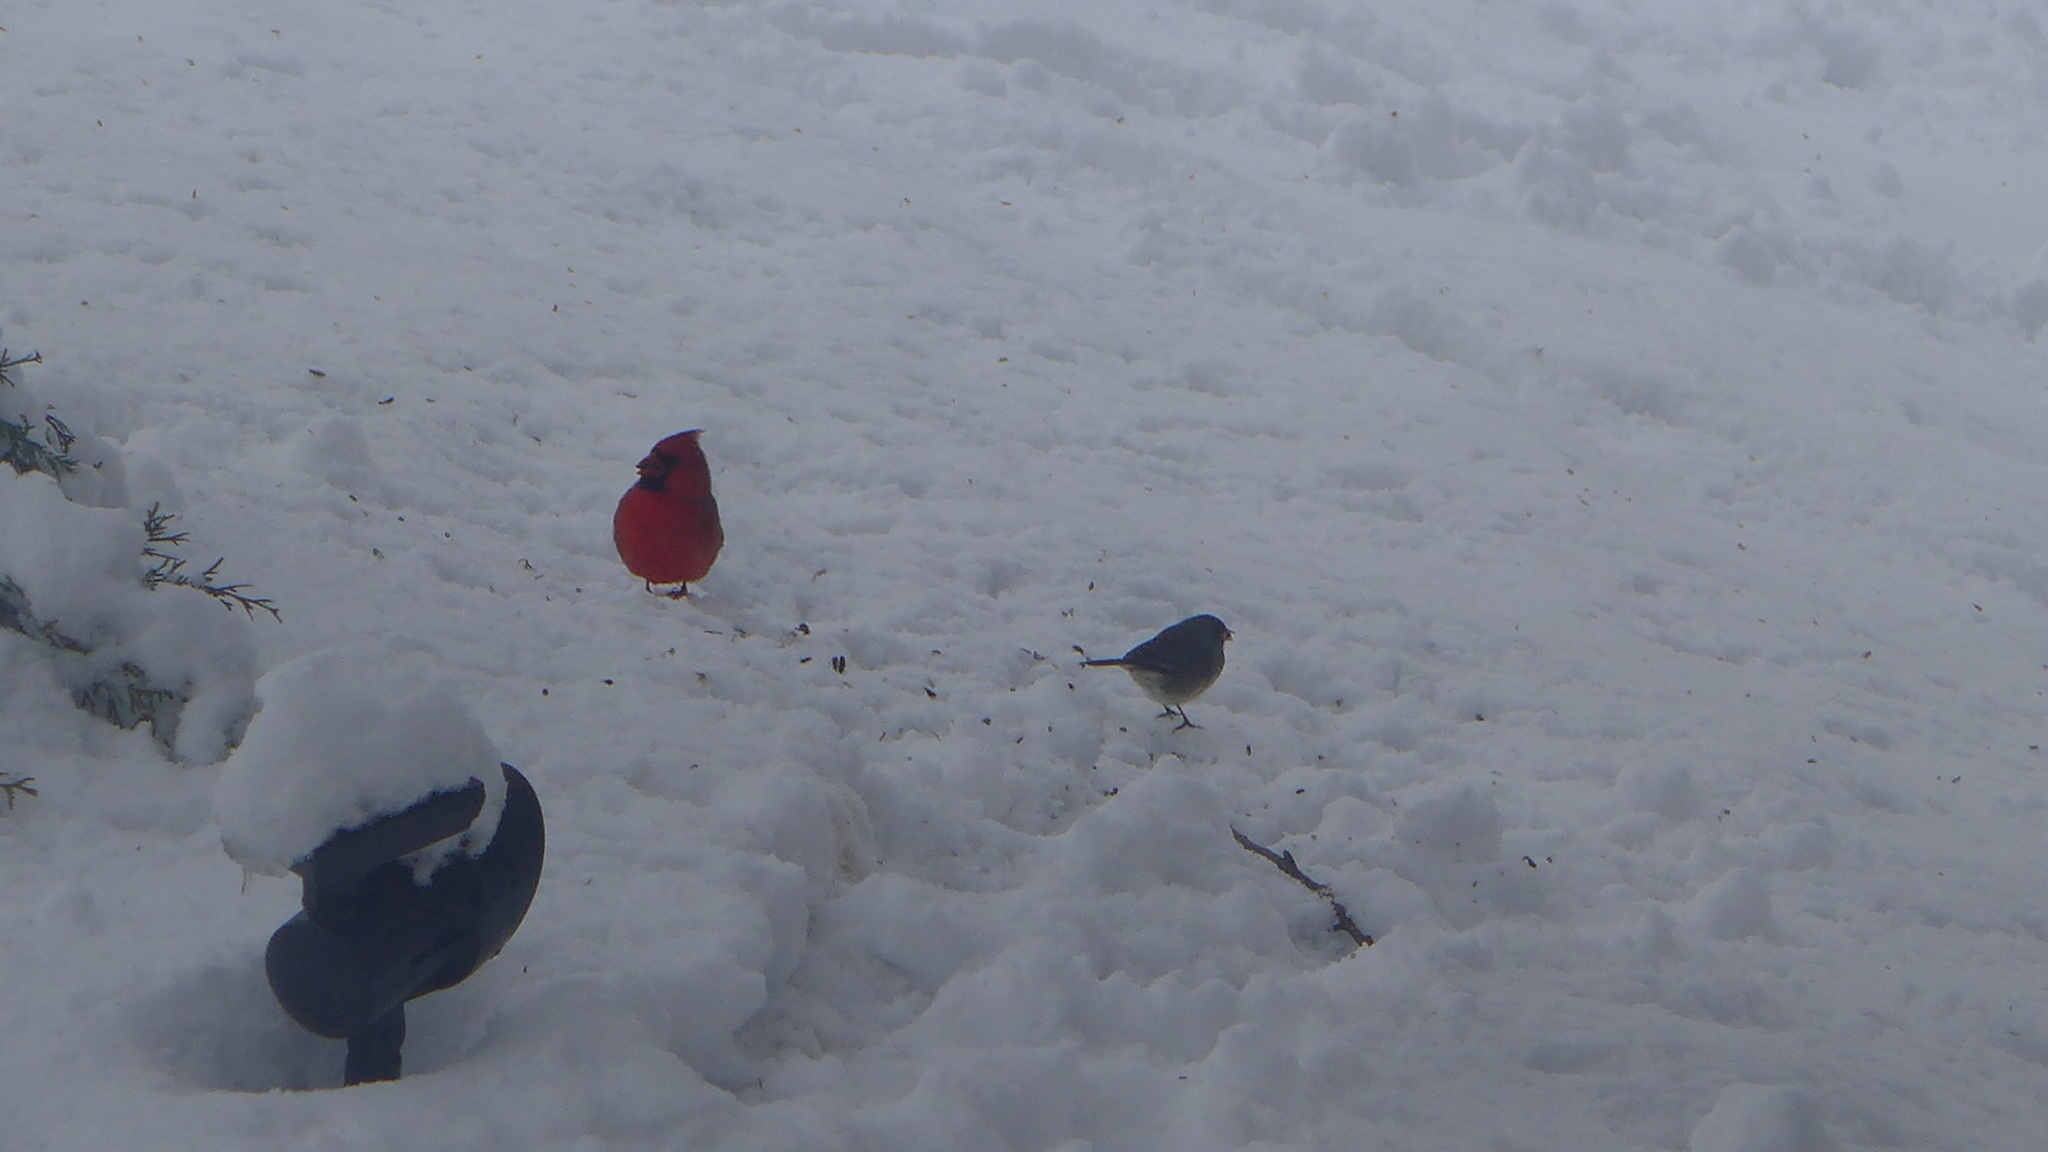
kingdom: Animalia
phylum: Chordata
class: Aves
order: Passeriformes
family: Cardinalidae
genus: Cardinalis
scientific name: Cardinalis cardinalis
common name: Northern cardinal
